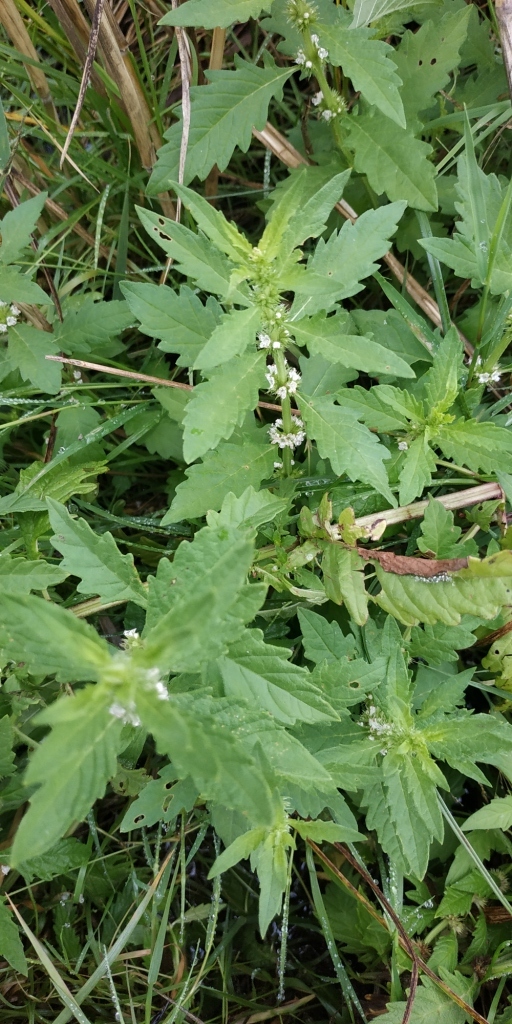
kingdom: Plantae
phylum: Tracheophyta
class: Magnoliopsida
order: Lamiales
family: Lamiaceae
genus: Lycopus
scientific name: Lycopus europaeus
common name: European bugleweed
